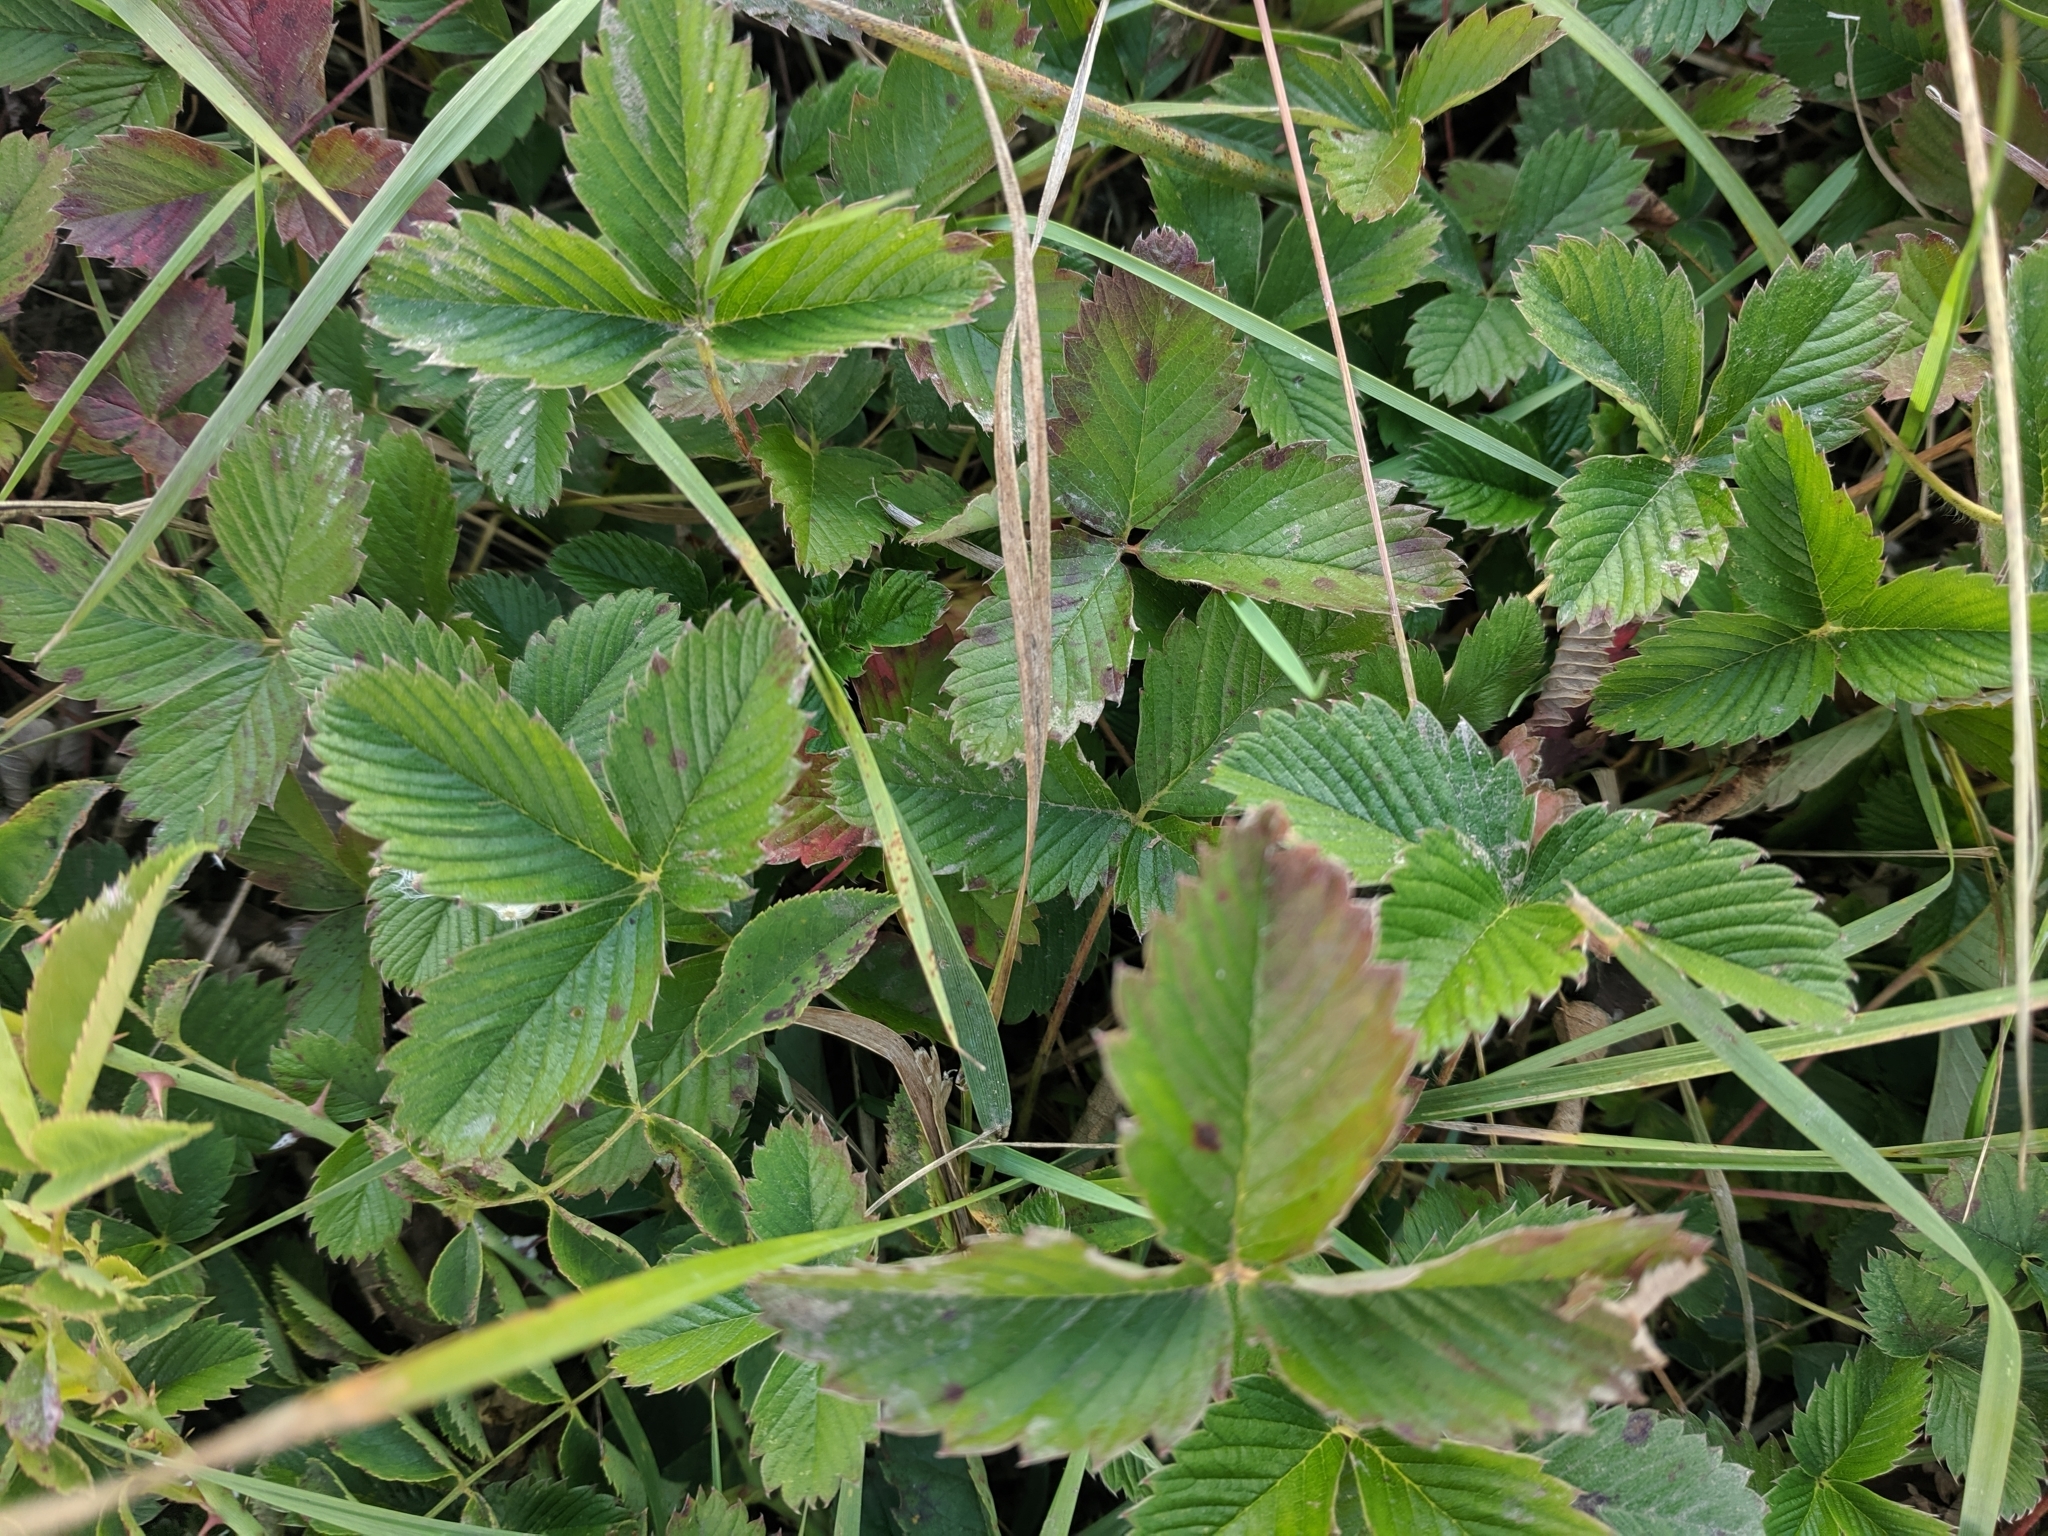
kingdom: Plantae
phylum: Tracheophyta
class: Magnoliopsida
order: Rosales
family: Rosaceae
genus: Fragaria
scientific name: Fragaria vesca
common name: Wild strawberry
